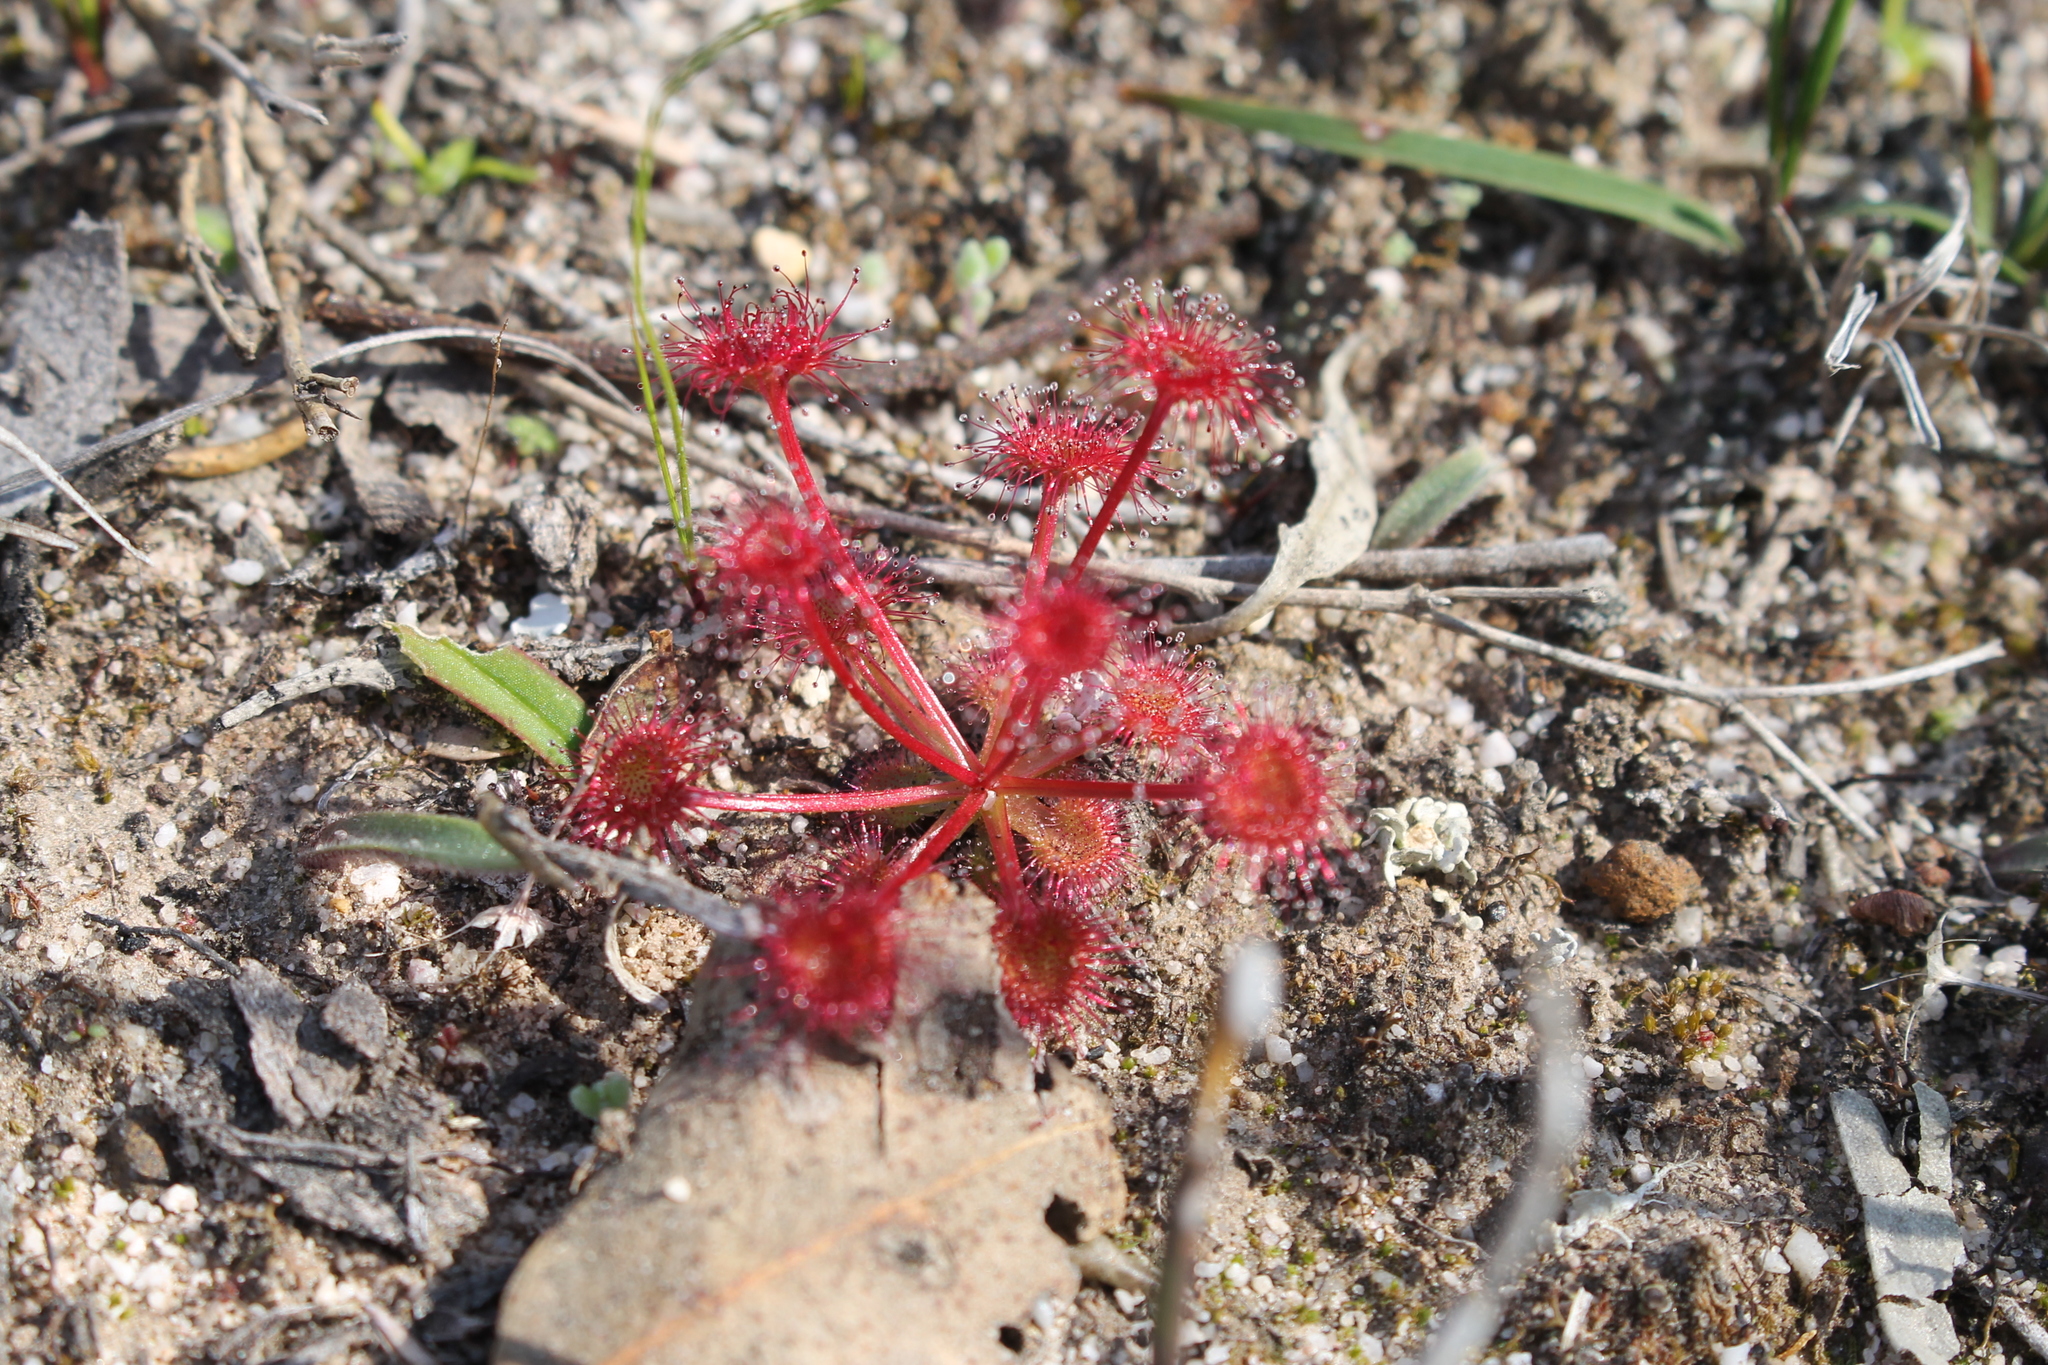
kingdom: Plantae
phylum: Tracheophyta
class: Magnoliopsida
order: Caryophyllales
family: Droseraceae
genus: Drosera
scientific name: Drosera stolonifera
